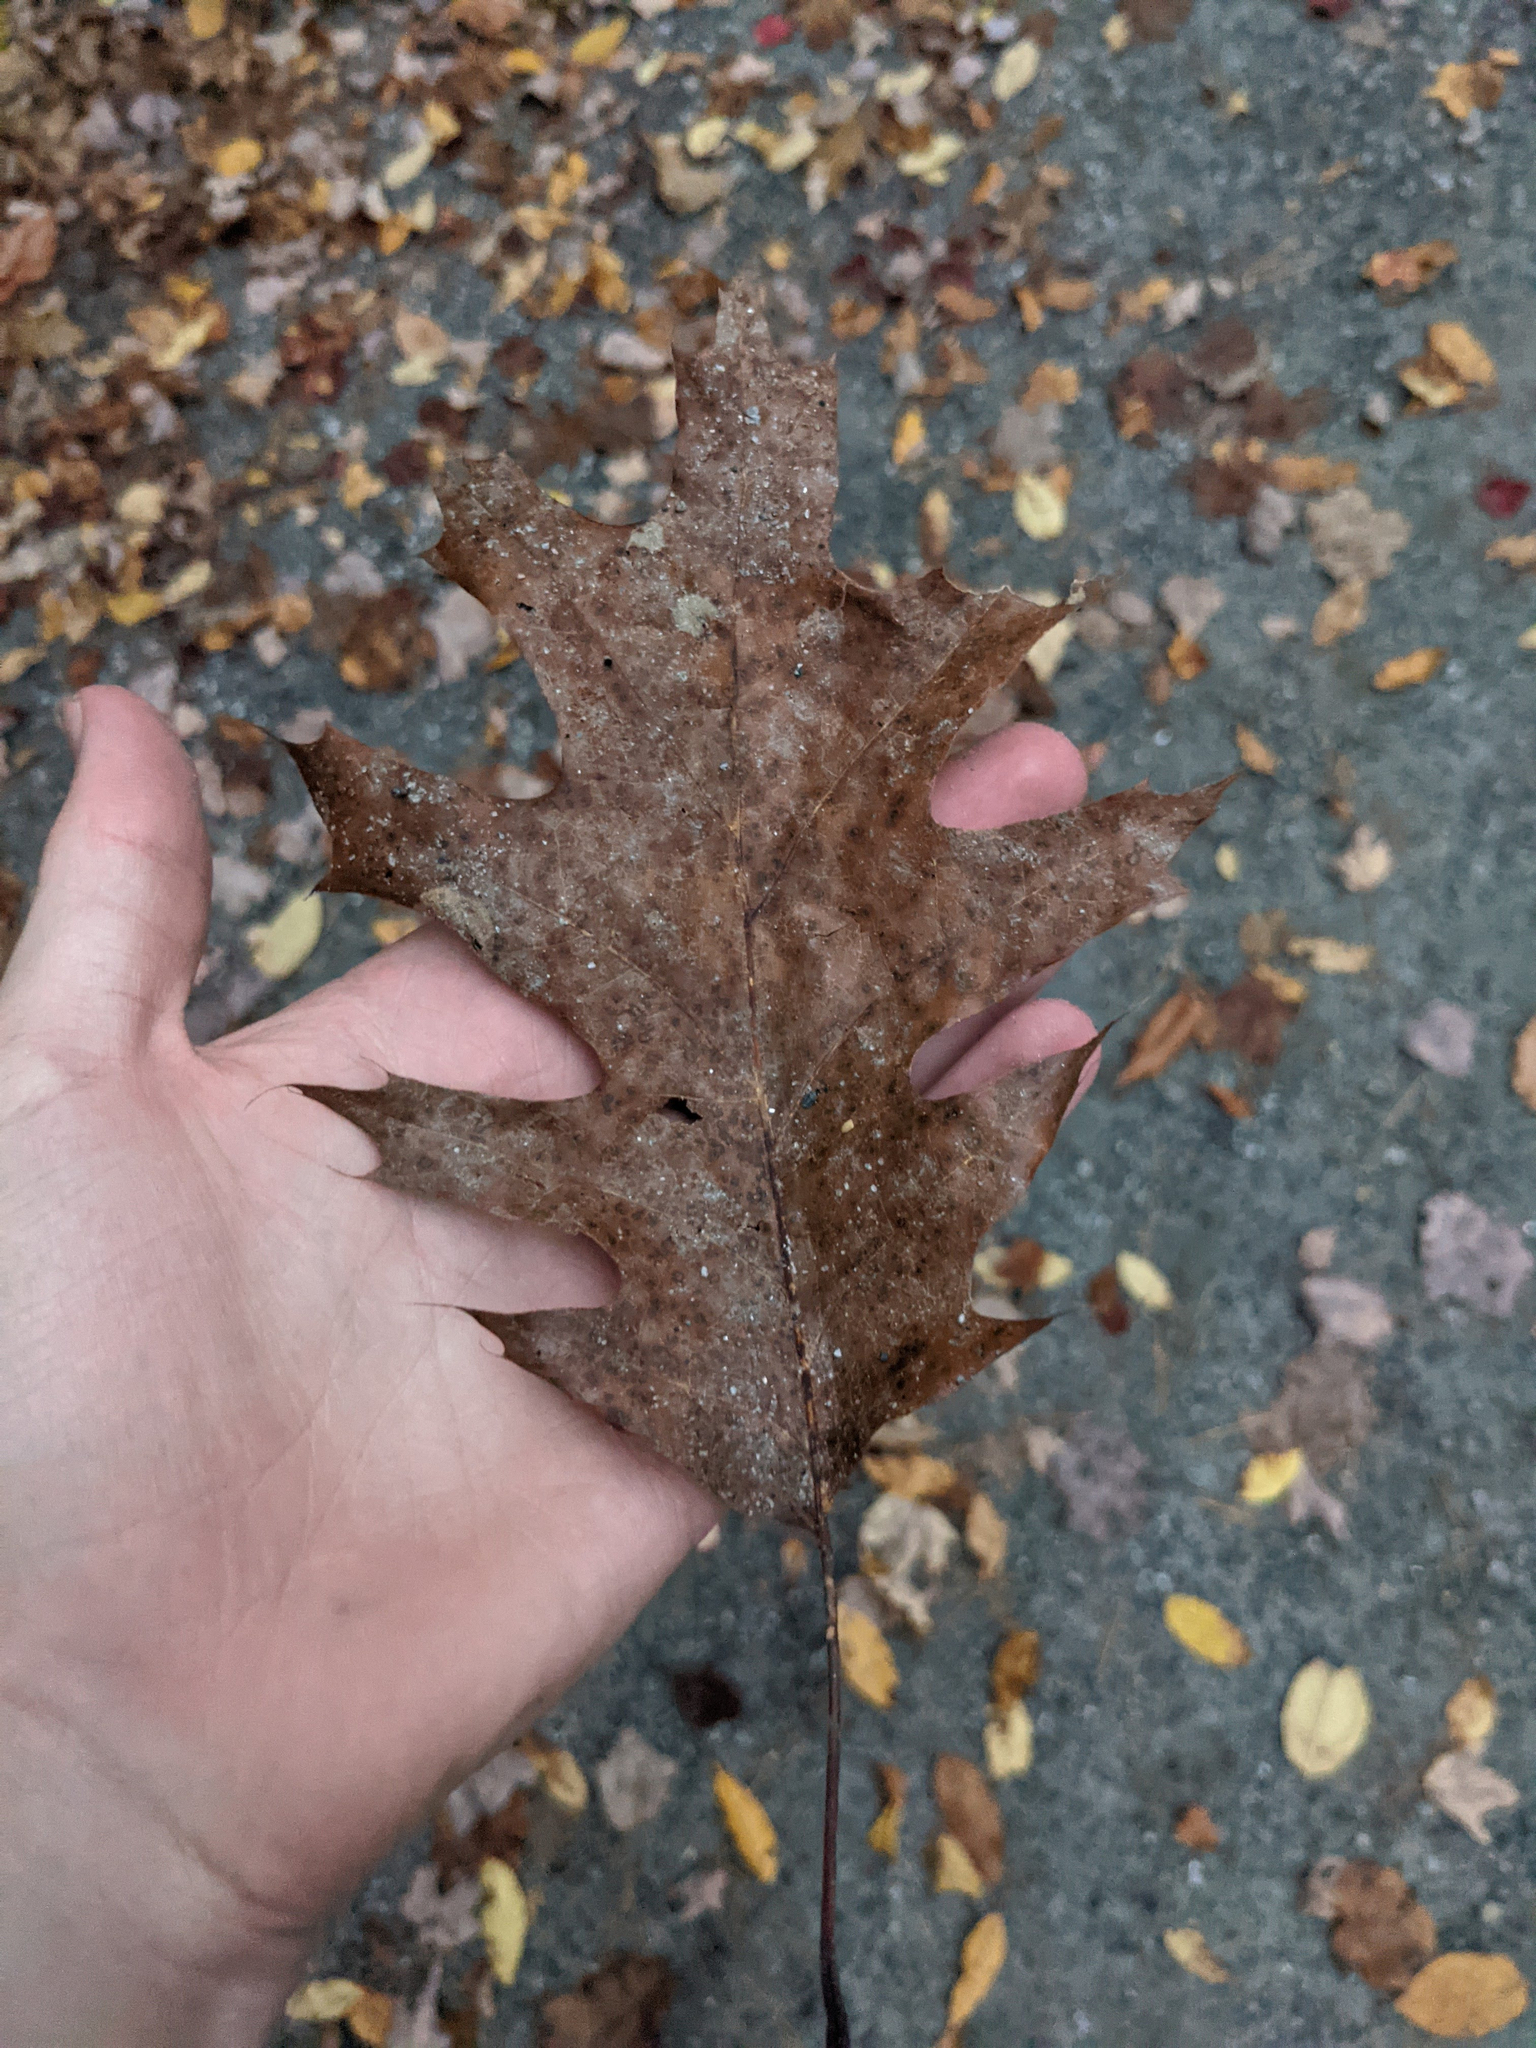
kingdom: Plantae
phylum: Tracheophyta
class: Magnoliopsida
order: Fagales
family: Fagaceae
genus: Quercus
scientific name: Quercus rubra
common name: Red oak
